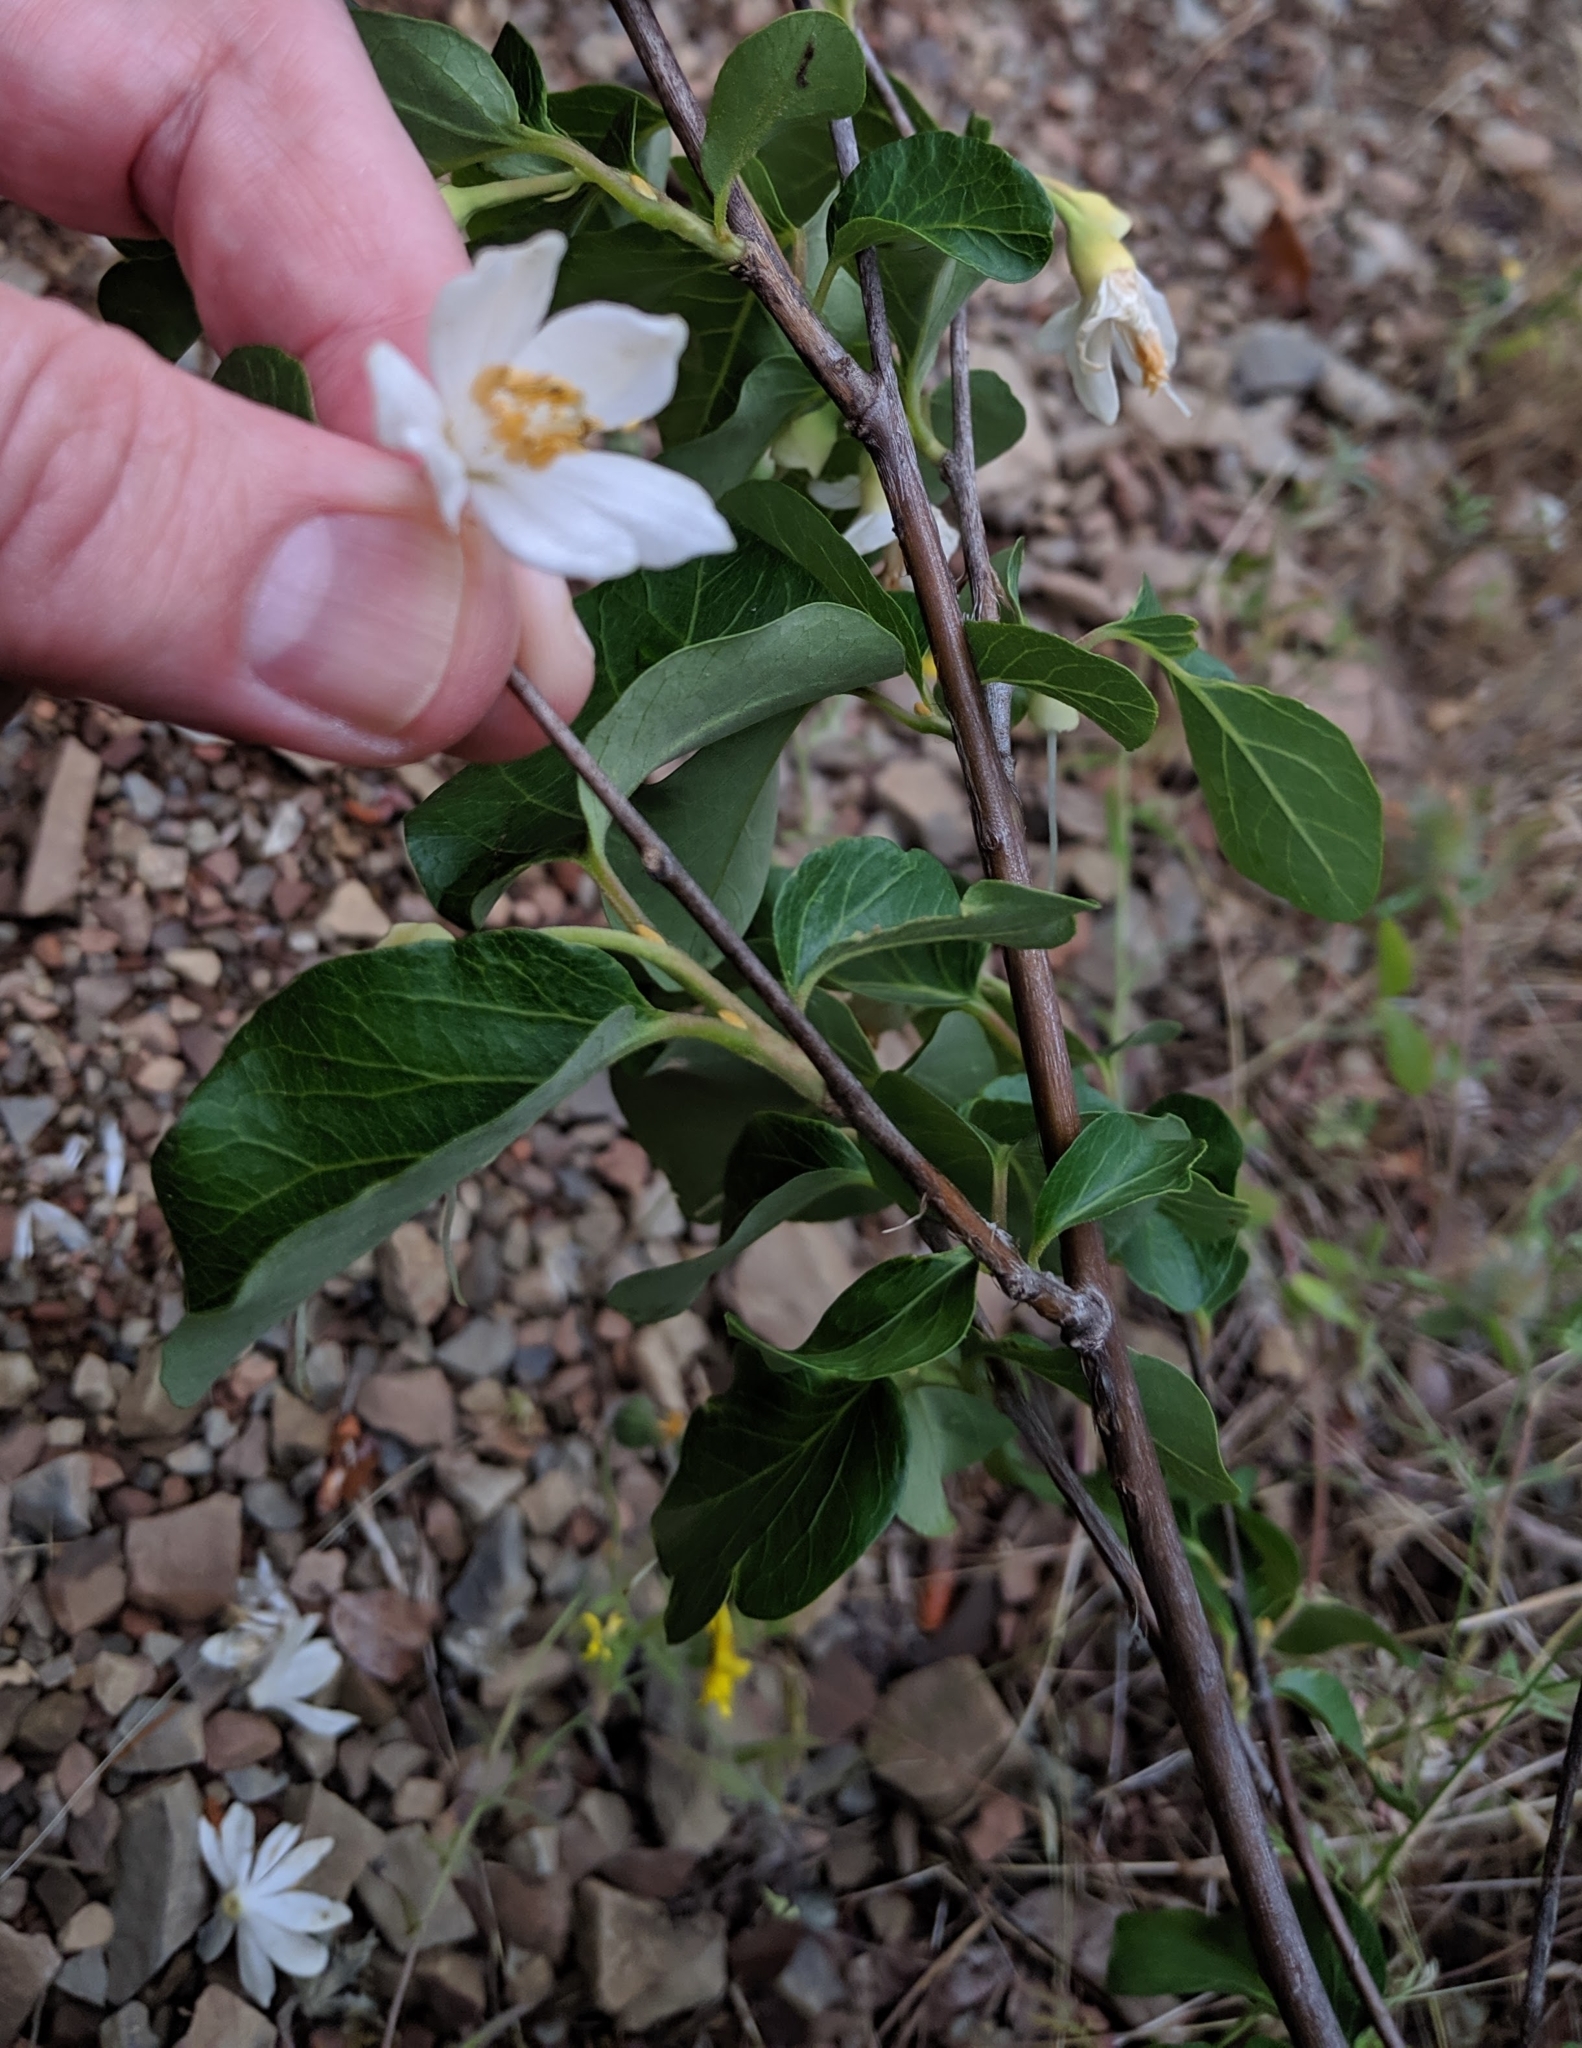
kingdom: Plantae
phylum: Tracheophyta
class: Magnoliopsida
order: Ericales
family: Styracaceae
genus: Styrax
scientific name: Styrax redivivus
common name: California styrax
